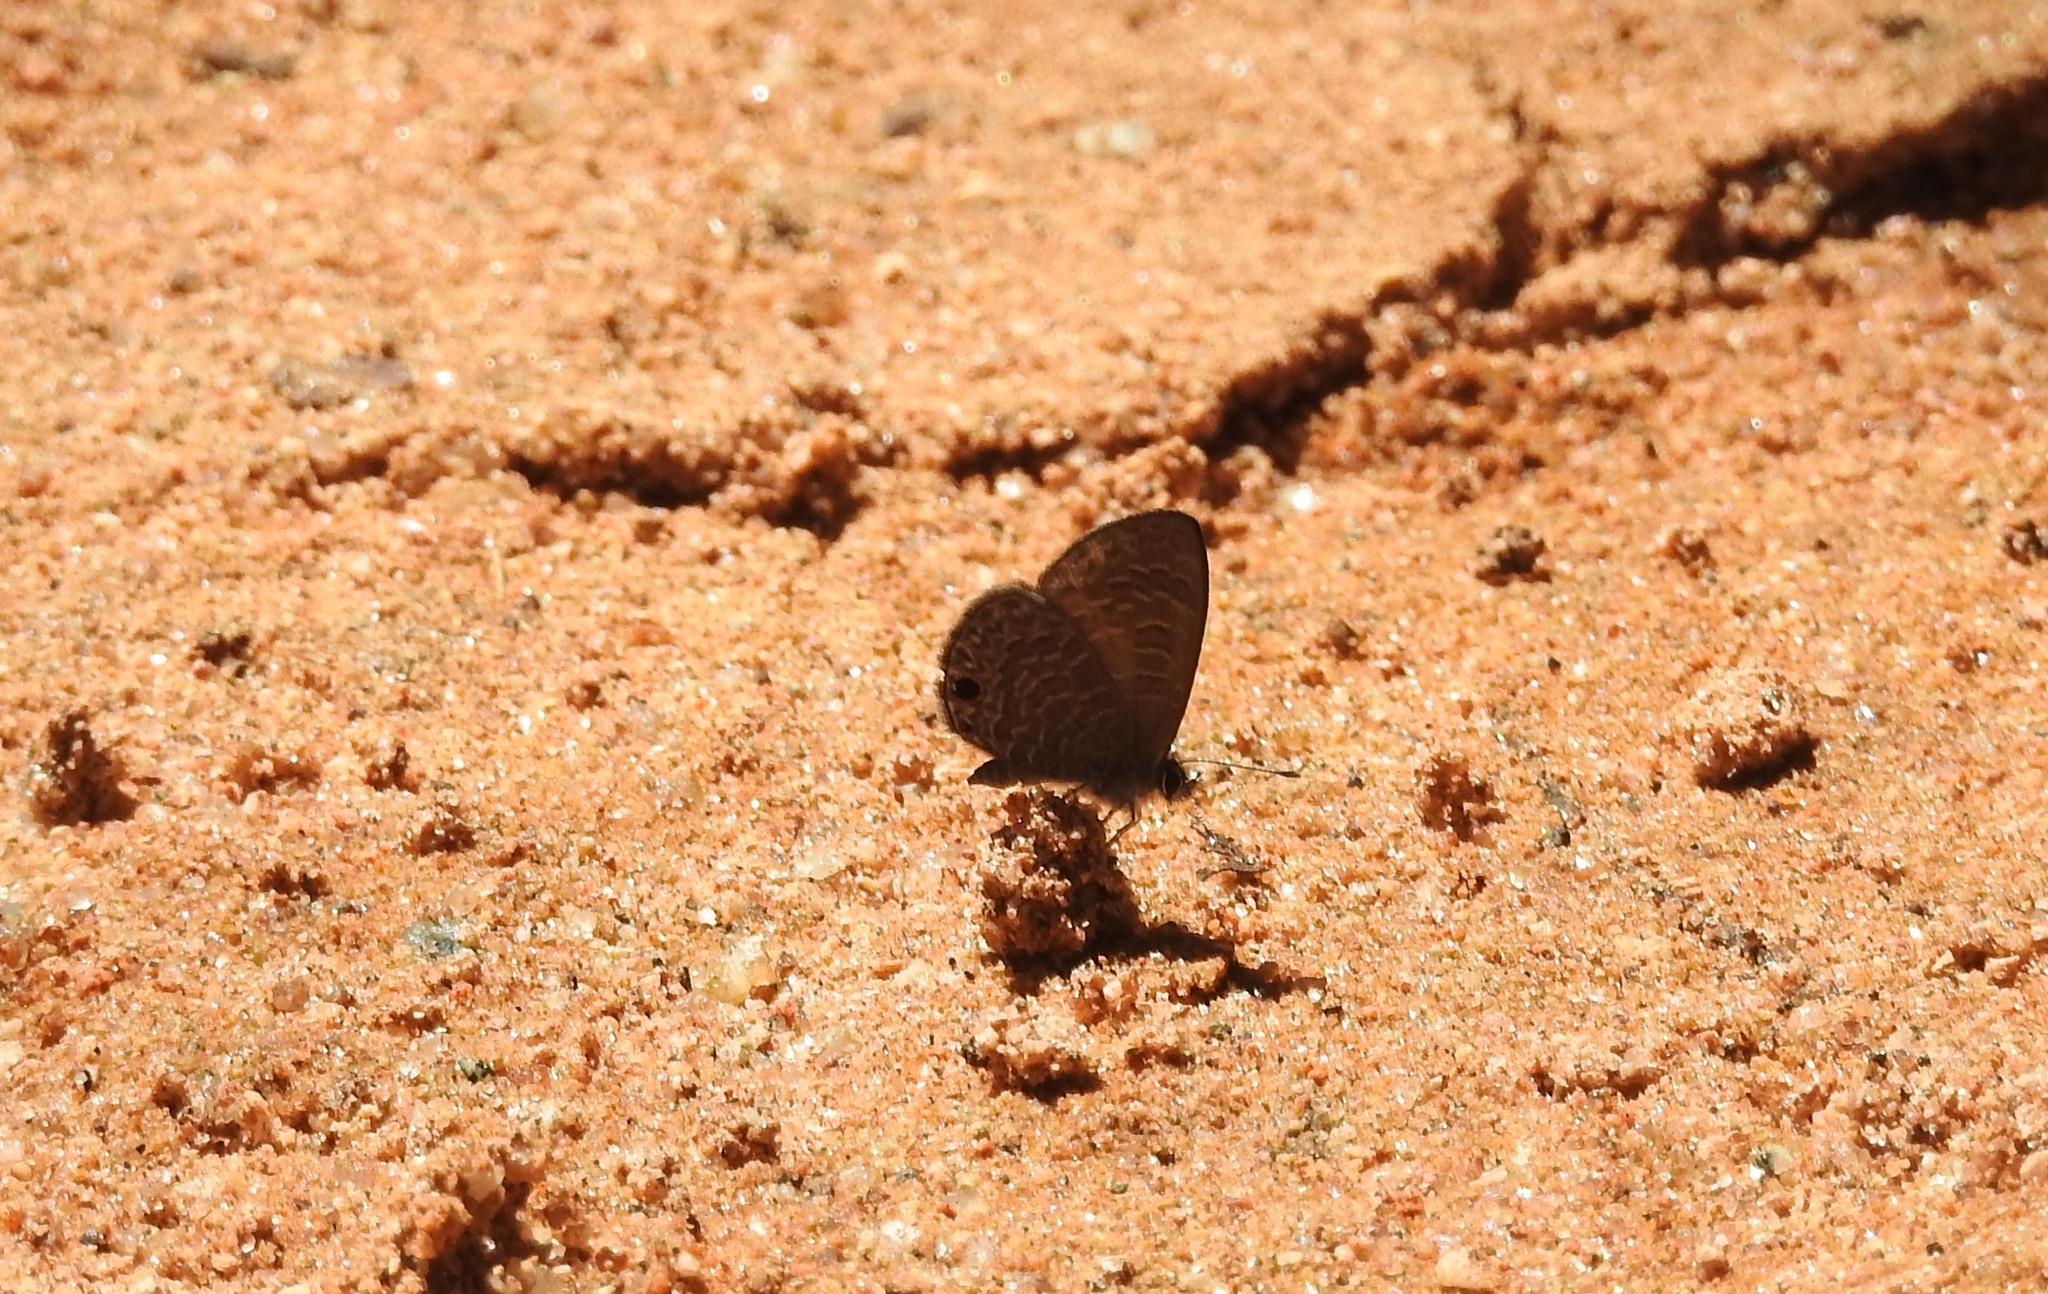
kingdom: Animalia
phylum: Arthropoda
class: Insecta
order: Lepidoptera
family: Lycaenidae
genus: Prosotas
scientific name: Prosotas dubiosa
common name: Tailless lineblue
